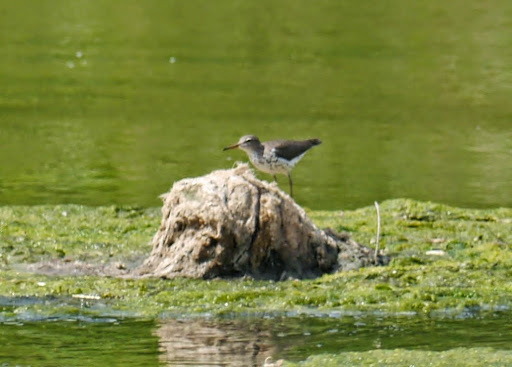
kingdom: Animalia
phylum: Chordata
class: Aves
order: Charadriiformes
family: Scolopacidae
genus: Actitis
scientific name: Actitis macularius
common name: Spotted sandpiper
